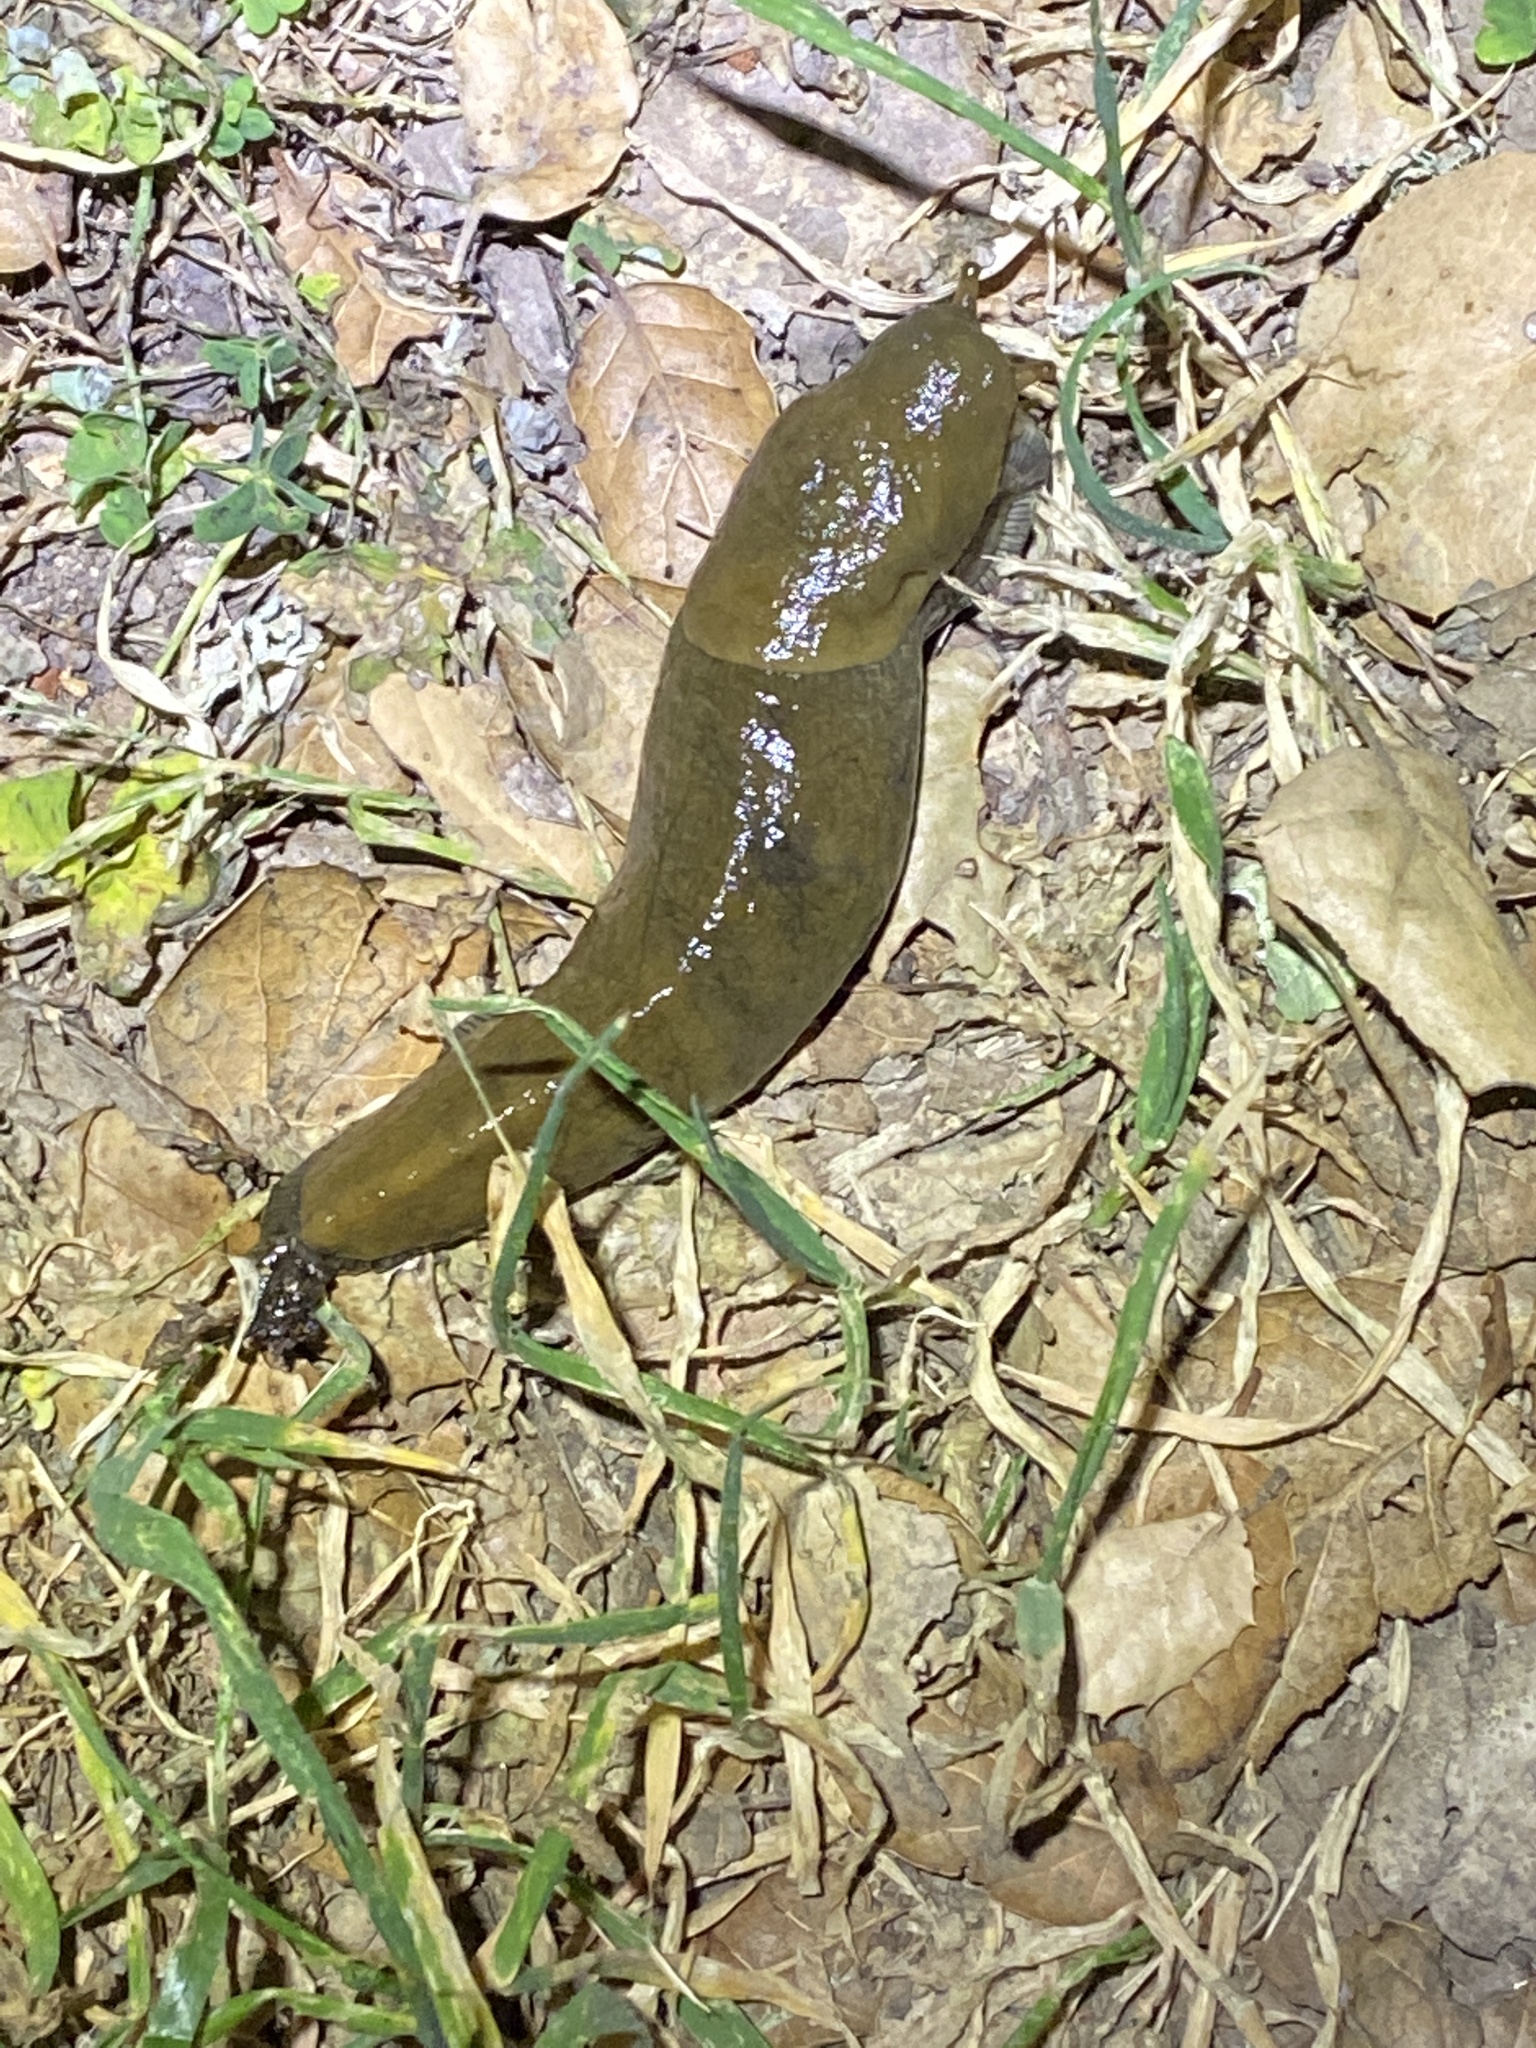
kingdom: Animalia
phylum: Mollusca
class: Gastropoda
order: Stylommatophora
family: Ariolimacidae
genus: Ariolimax
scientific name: Ariolimax buttoni
